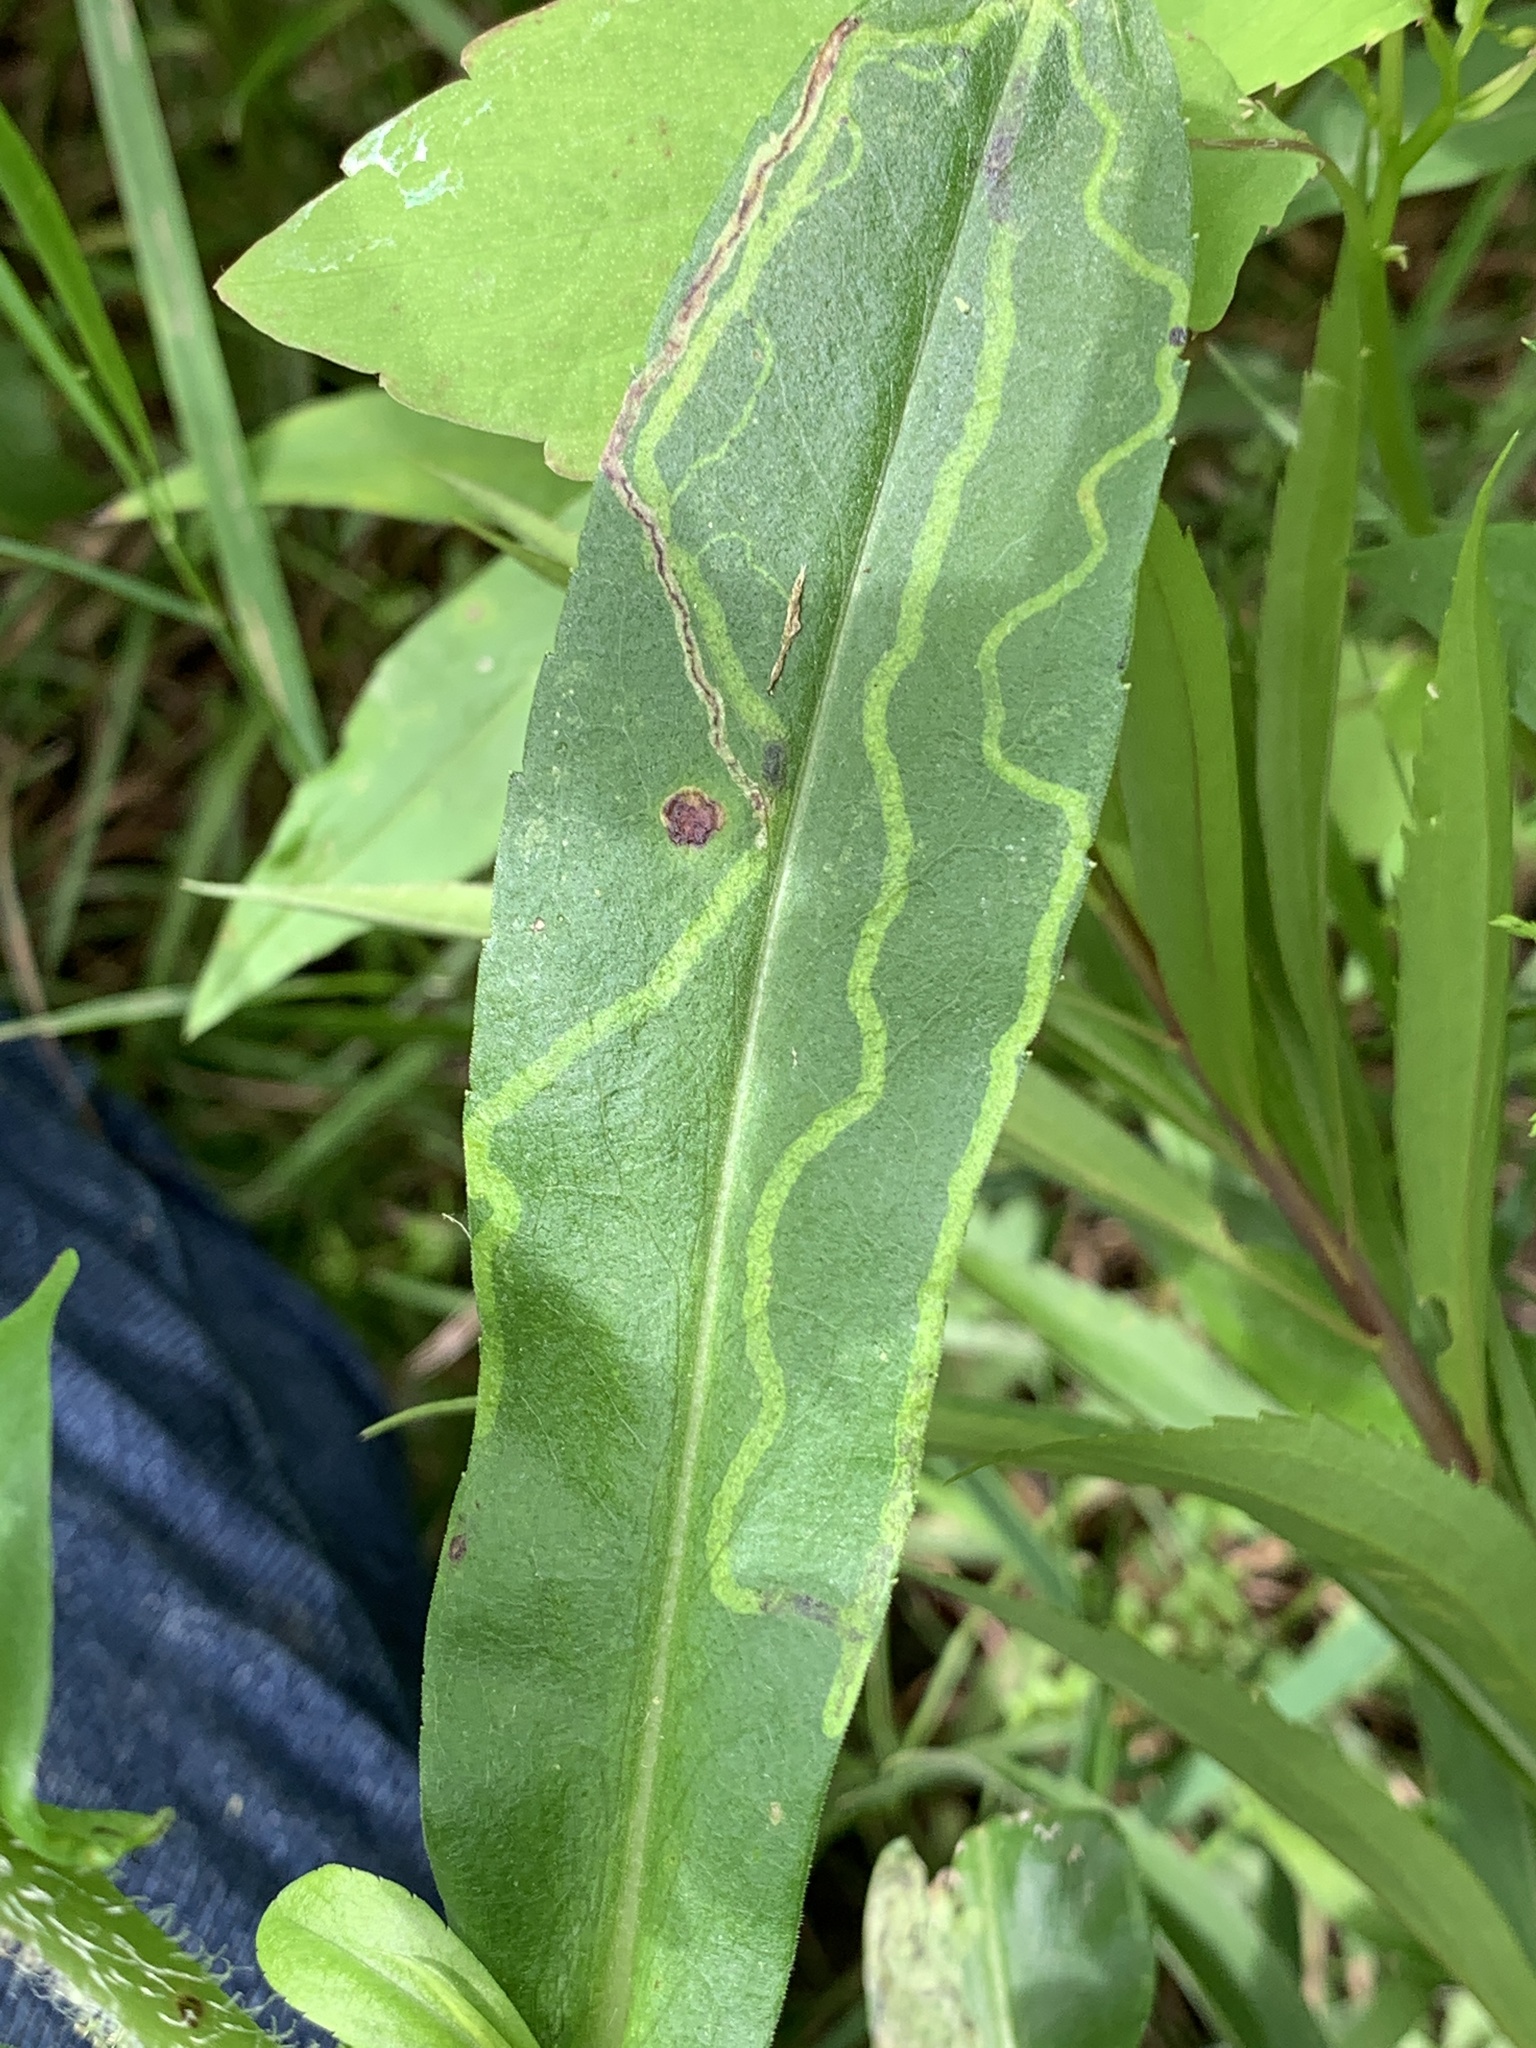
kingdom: Animalia
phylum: Arthropoda
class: Insecta
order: Diptera
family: Agromyzidae
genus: Ophiomyia
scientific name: Ophiomyia parda
